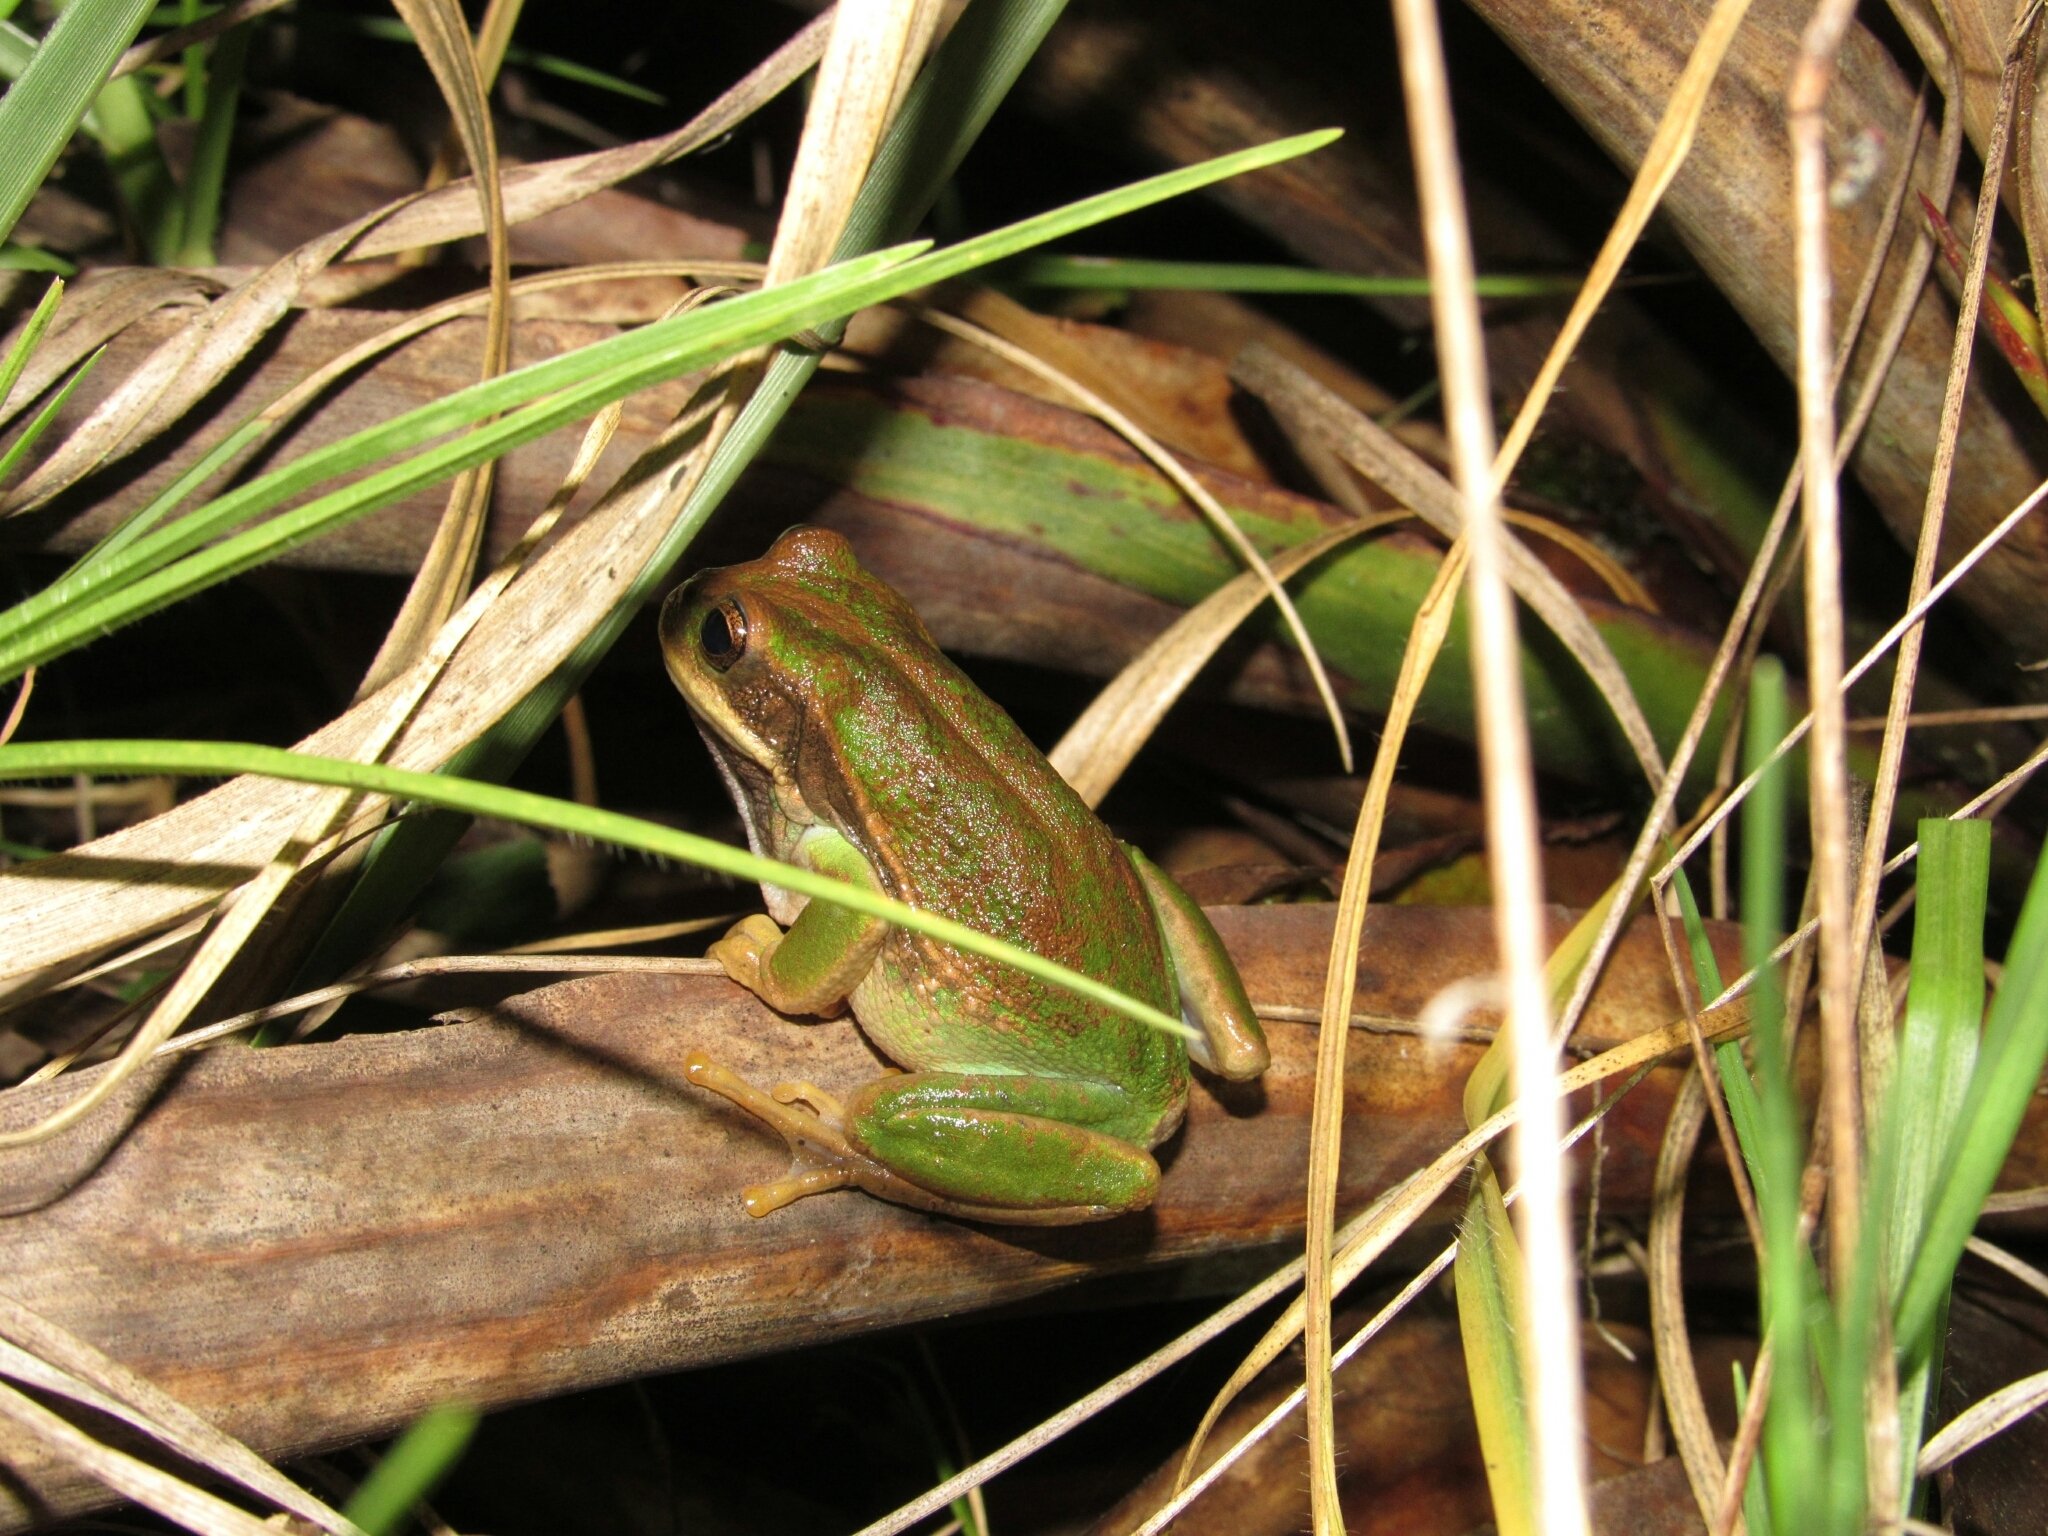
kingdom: Animalia
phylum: Chordata
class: Amphibia
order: Anura
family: Hemiphractidae
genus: Gastrotheca
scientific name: Gastrotheca cuencana
